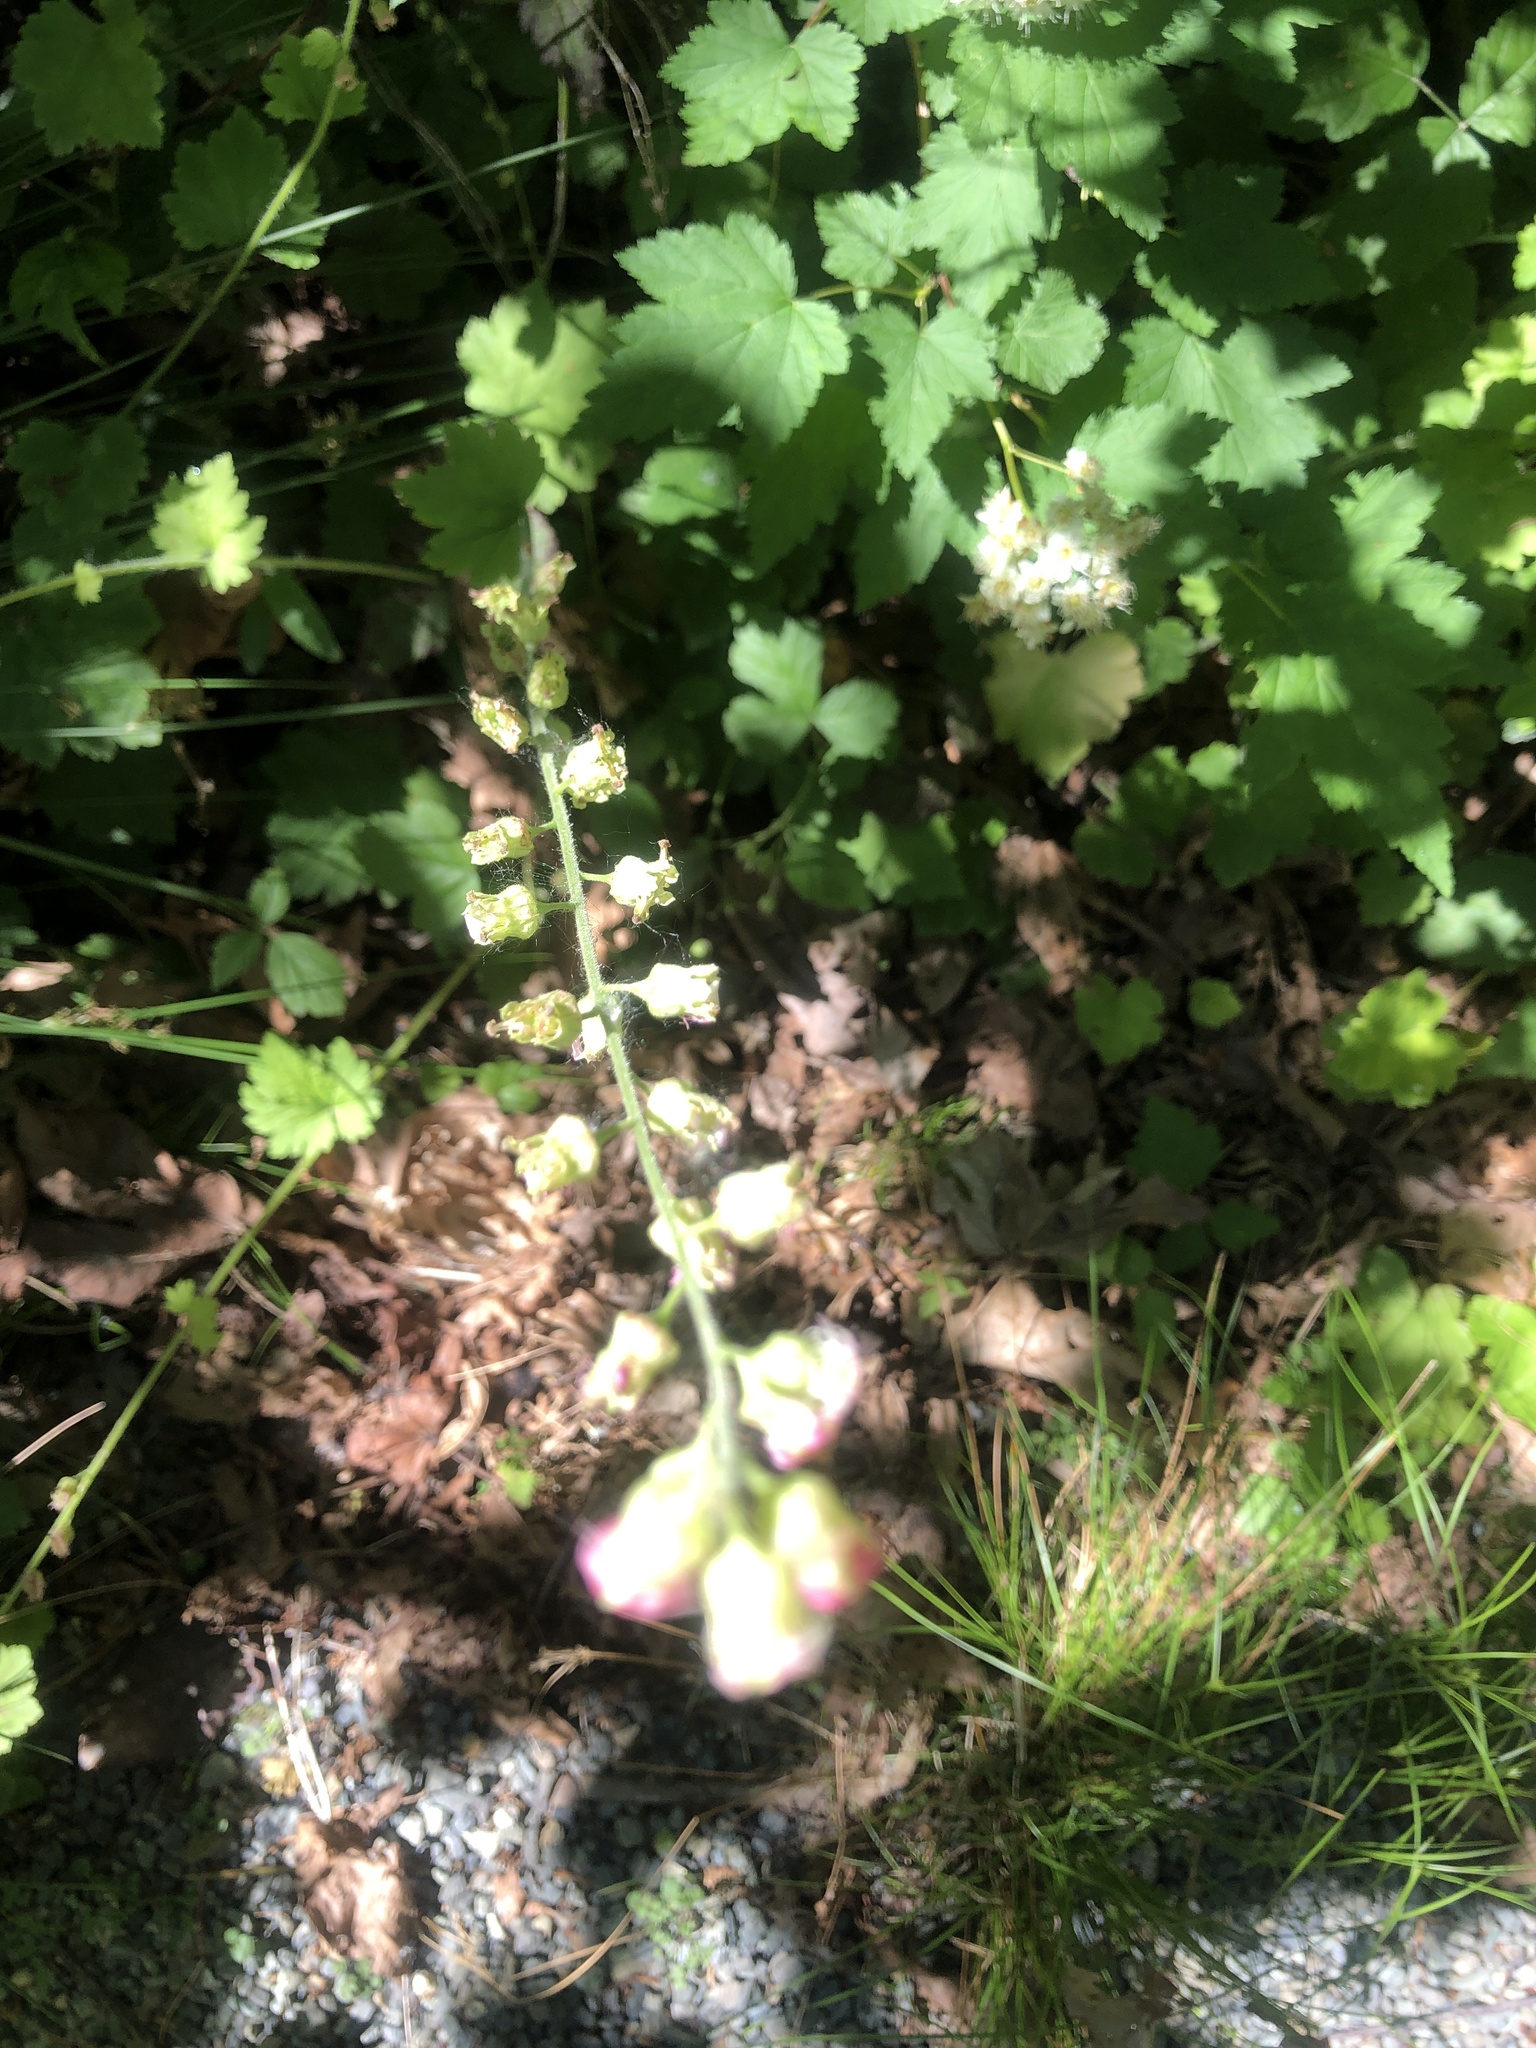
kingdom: Plantae
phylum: Tracheophyta
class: Magnoliopsida
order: Saxifragales
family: Saxifragaceae
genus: Tellima
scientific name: Tellima grandiflora
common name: Fringecups
